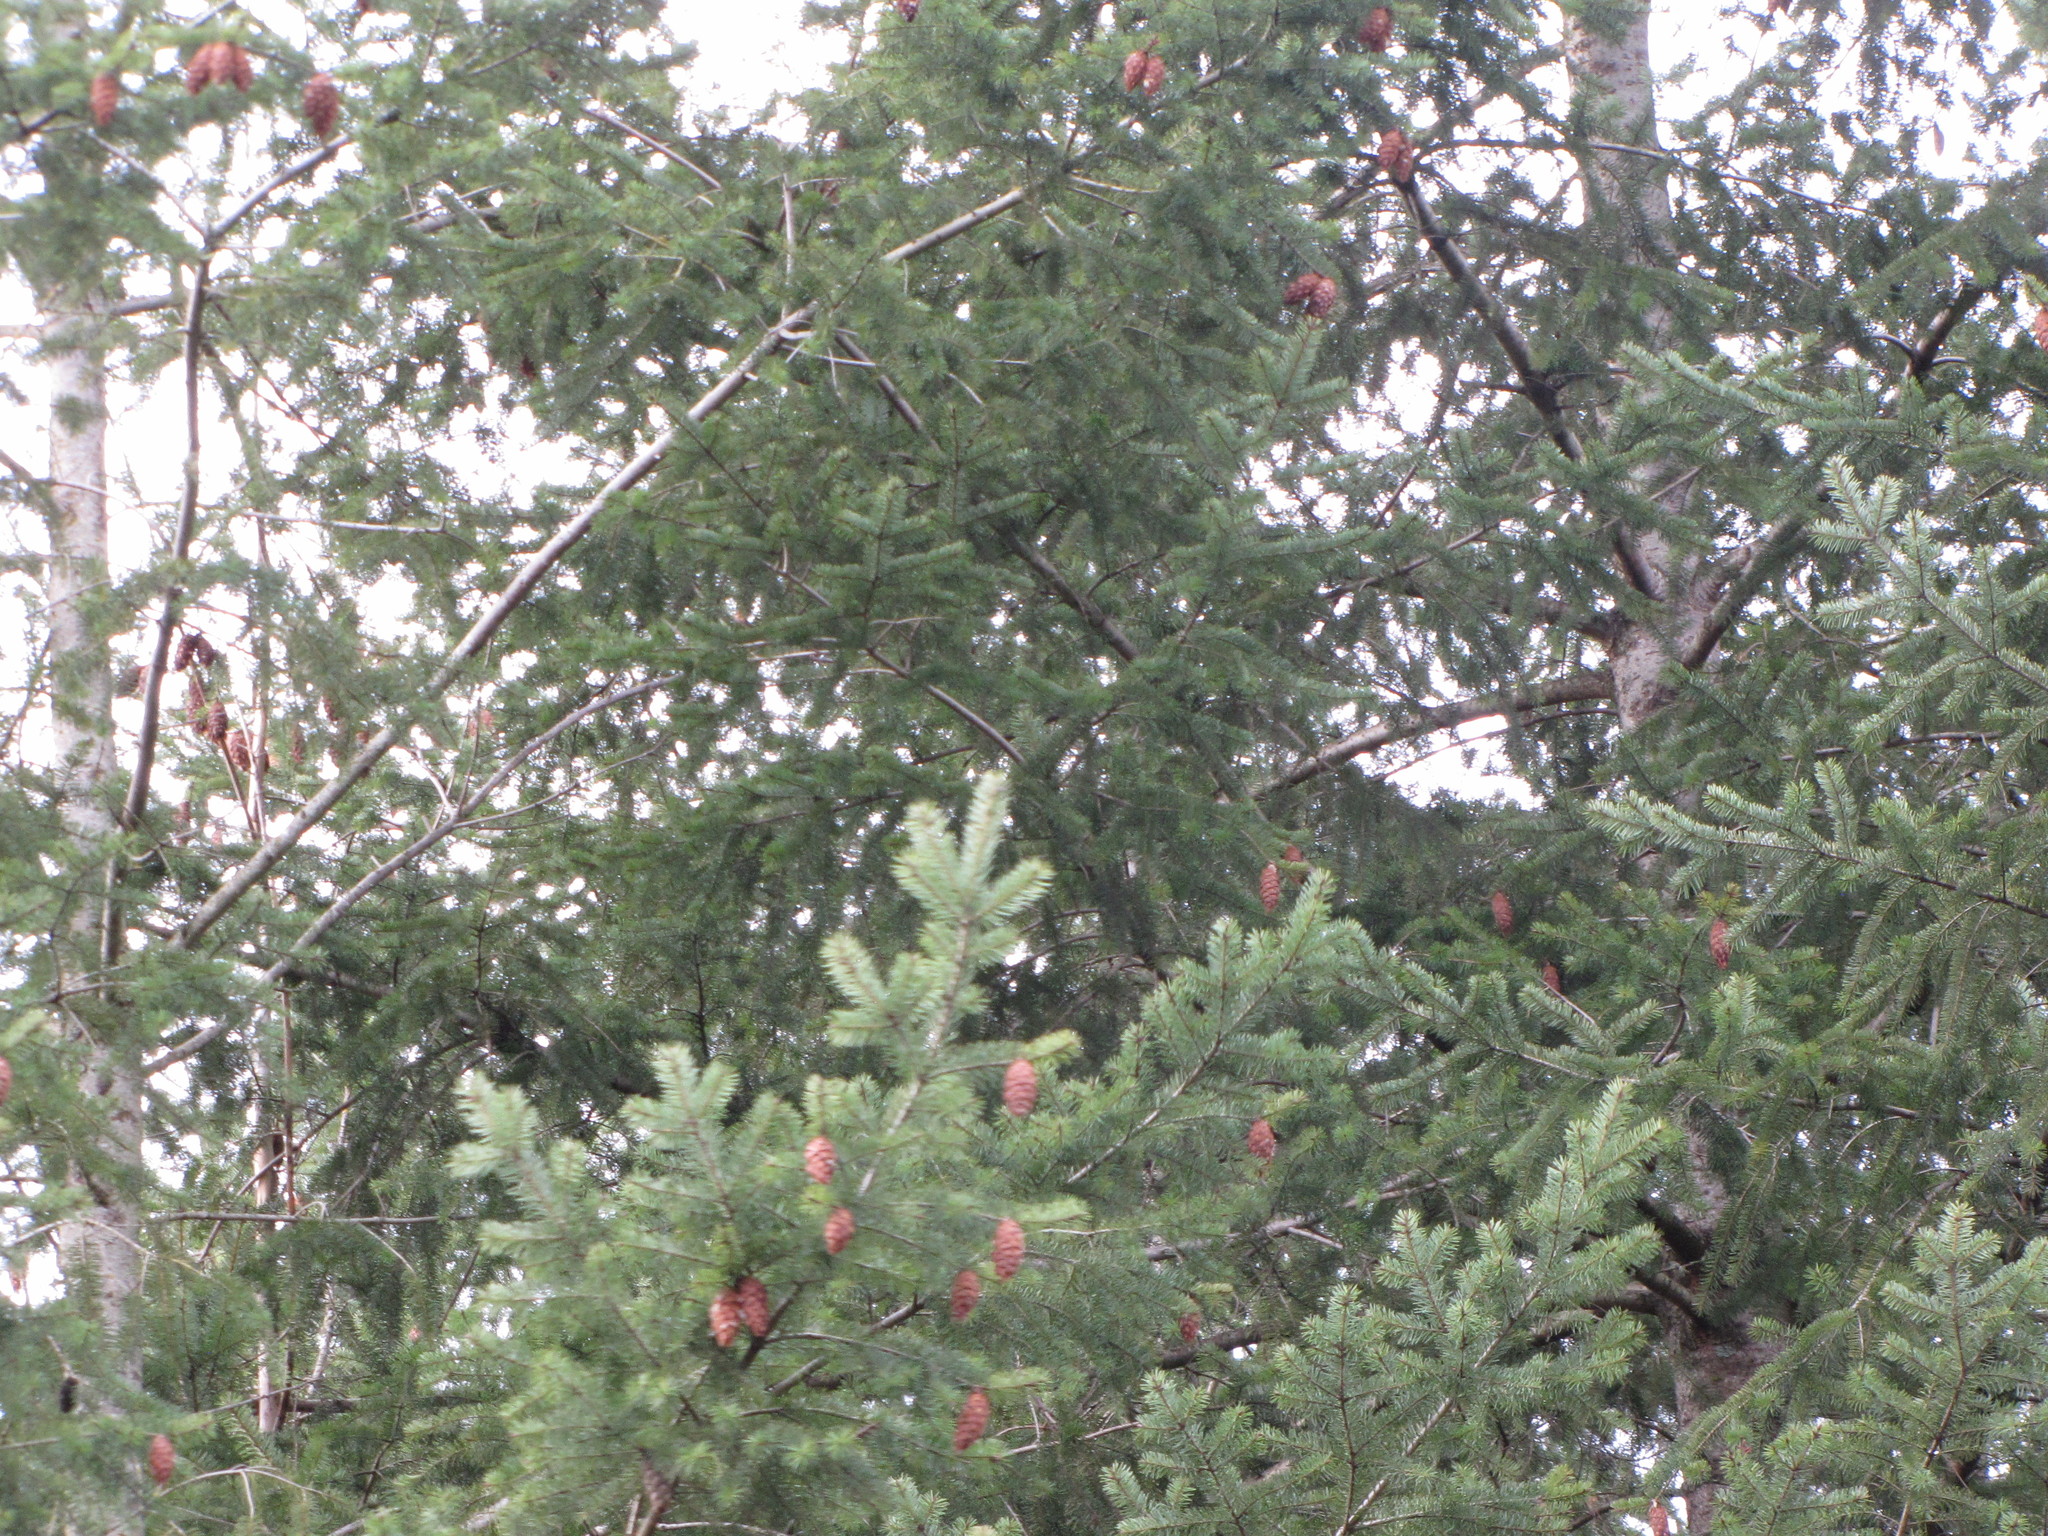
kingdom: Plantae
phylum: Tracheophyta
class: Pinopsida
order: Pinales
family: Pinaceae
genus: Pseudotsuga
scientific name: Pseudotsuga menziesii
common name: Douglas fir
